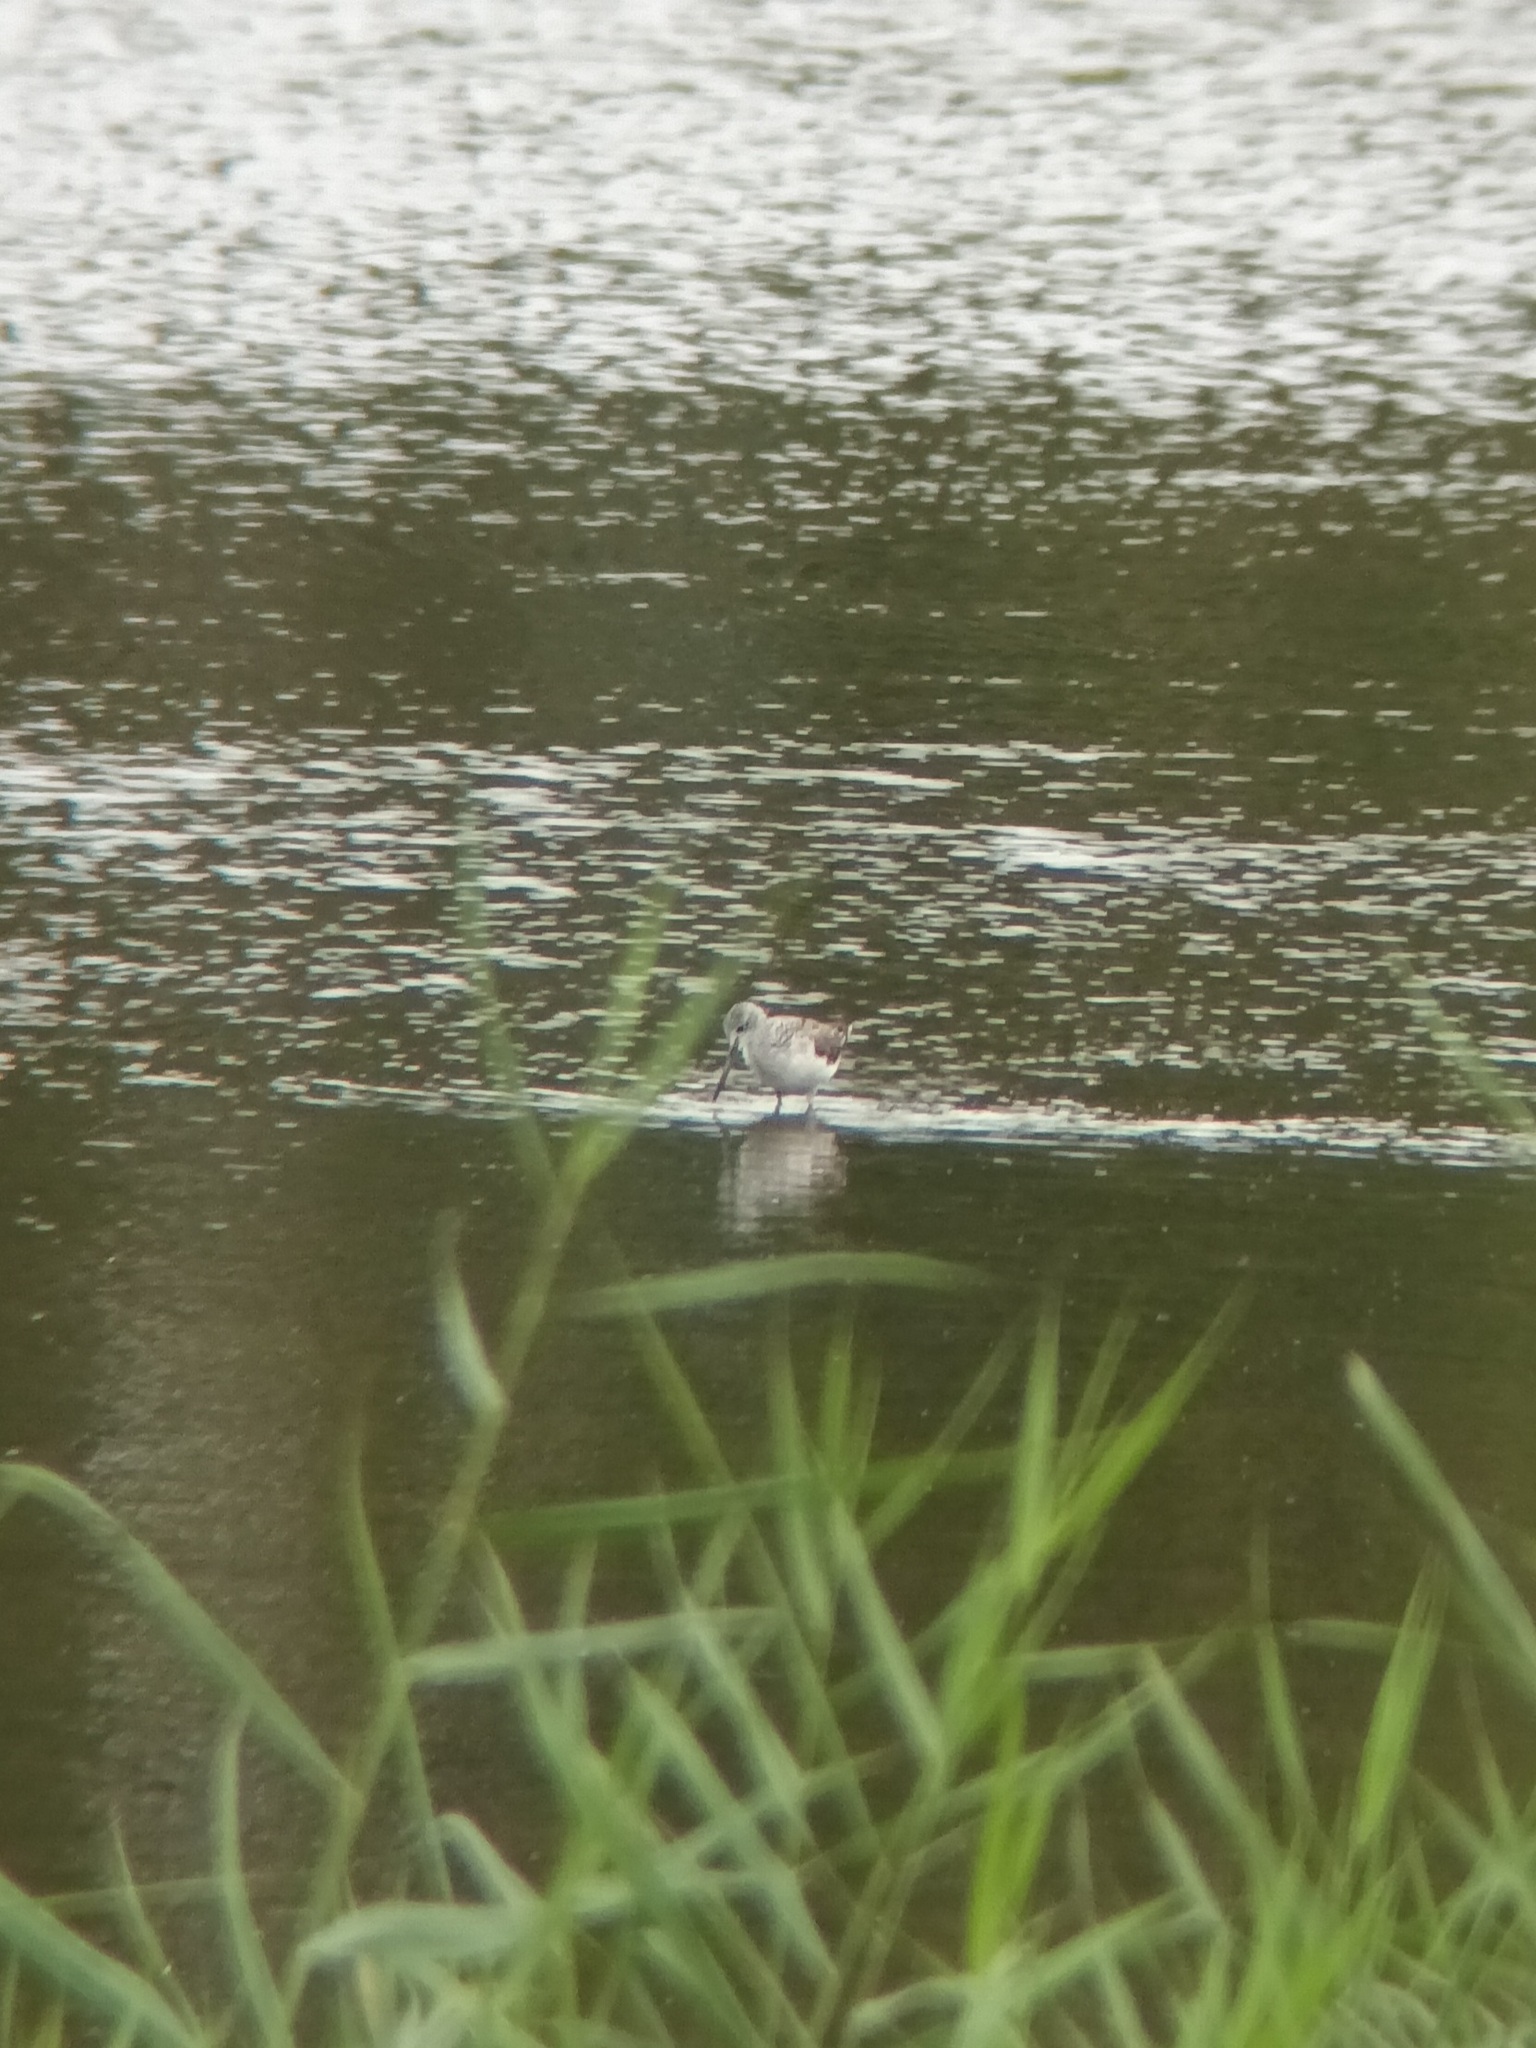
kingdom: Animalia
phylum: Chordata
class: Aves
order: Charadriiformes
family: Scolopacidae
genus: Tringa
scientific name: Tringa nebularia
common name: Common greenshank
